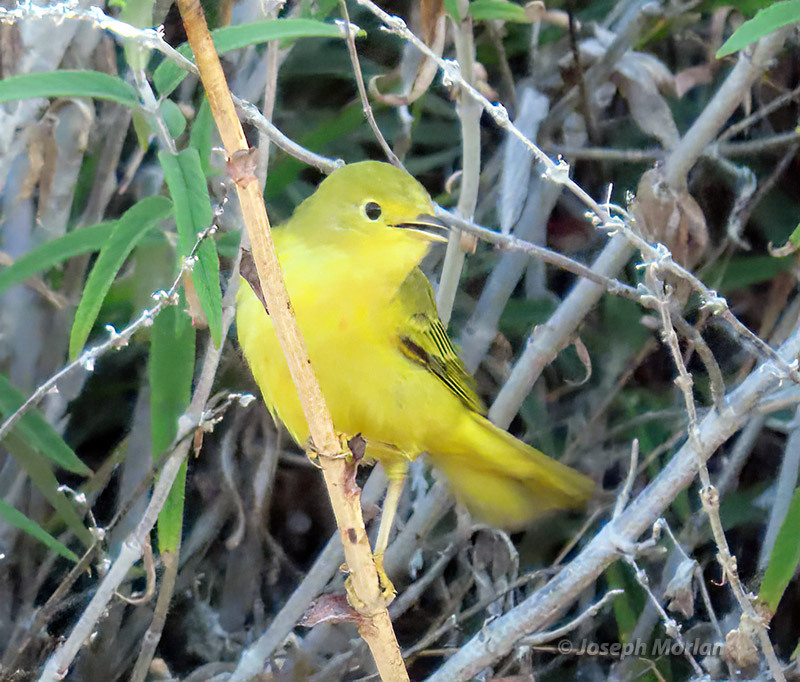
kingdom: Animalia
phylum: Chordata
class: Aves
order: Passeriformes
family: Parulidae
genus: Setophaga
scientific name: Setophaga petechia
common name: Yellow warbler
